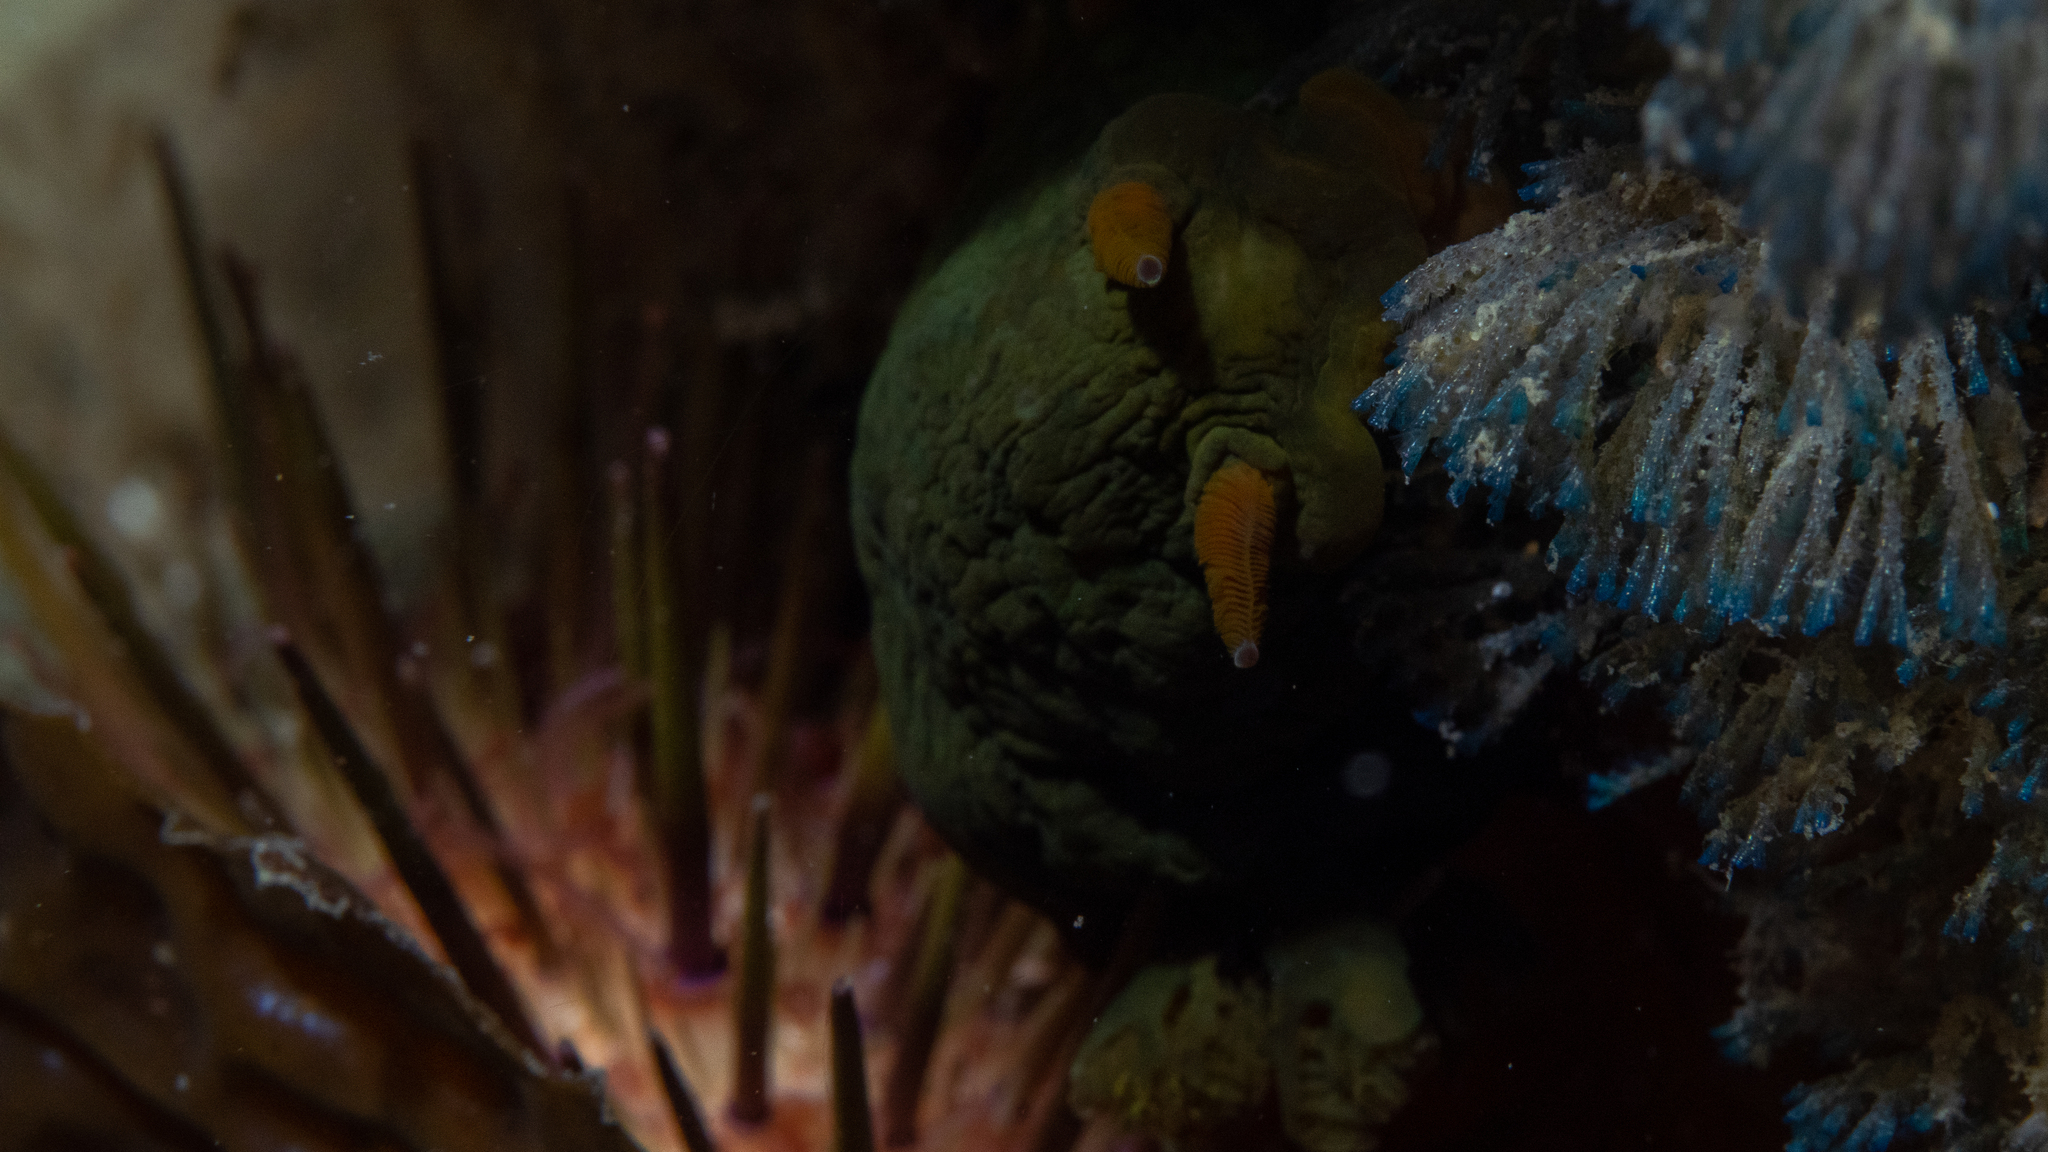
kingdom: Animalia
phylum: Mollusca
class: Gastropoda
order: Nudibranchia
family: Polyceridae
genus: Tambja
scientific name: Tambja dracomus
